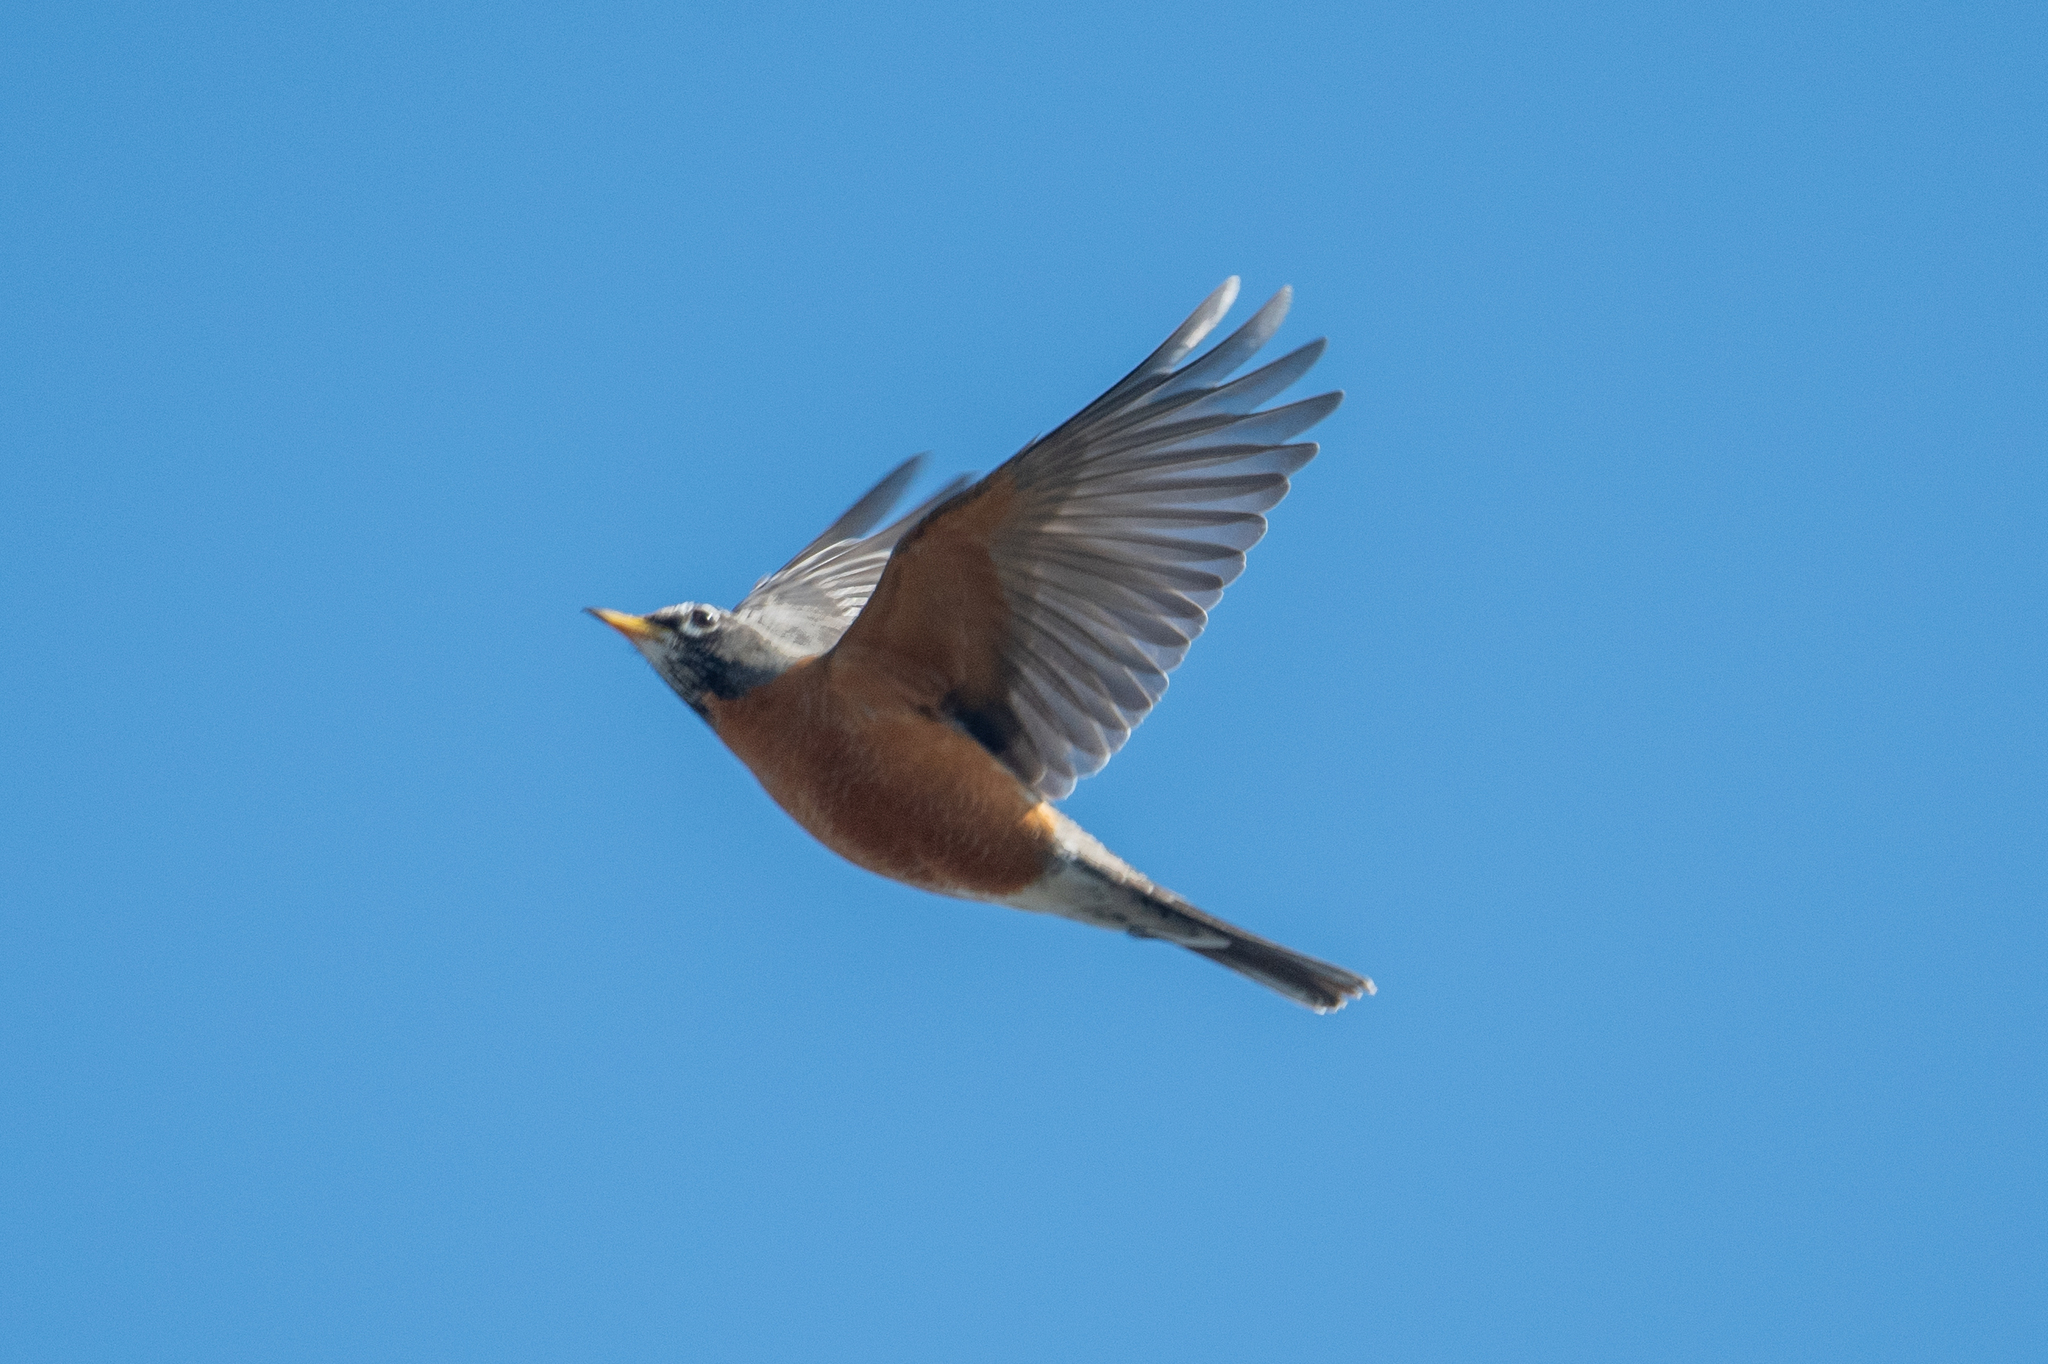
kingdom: Animalia
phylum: Chordata
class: Aves
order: Passeriformes
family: Turdidae
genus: Turdus
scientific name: Turdus migratorius
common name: American robin
